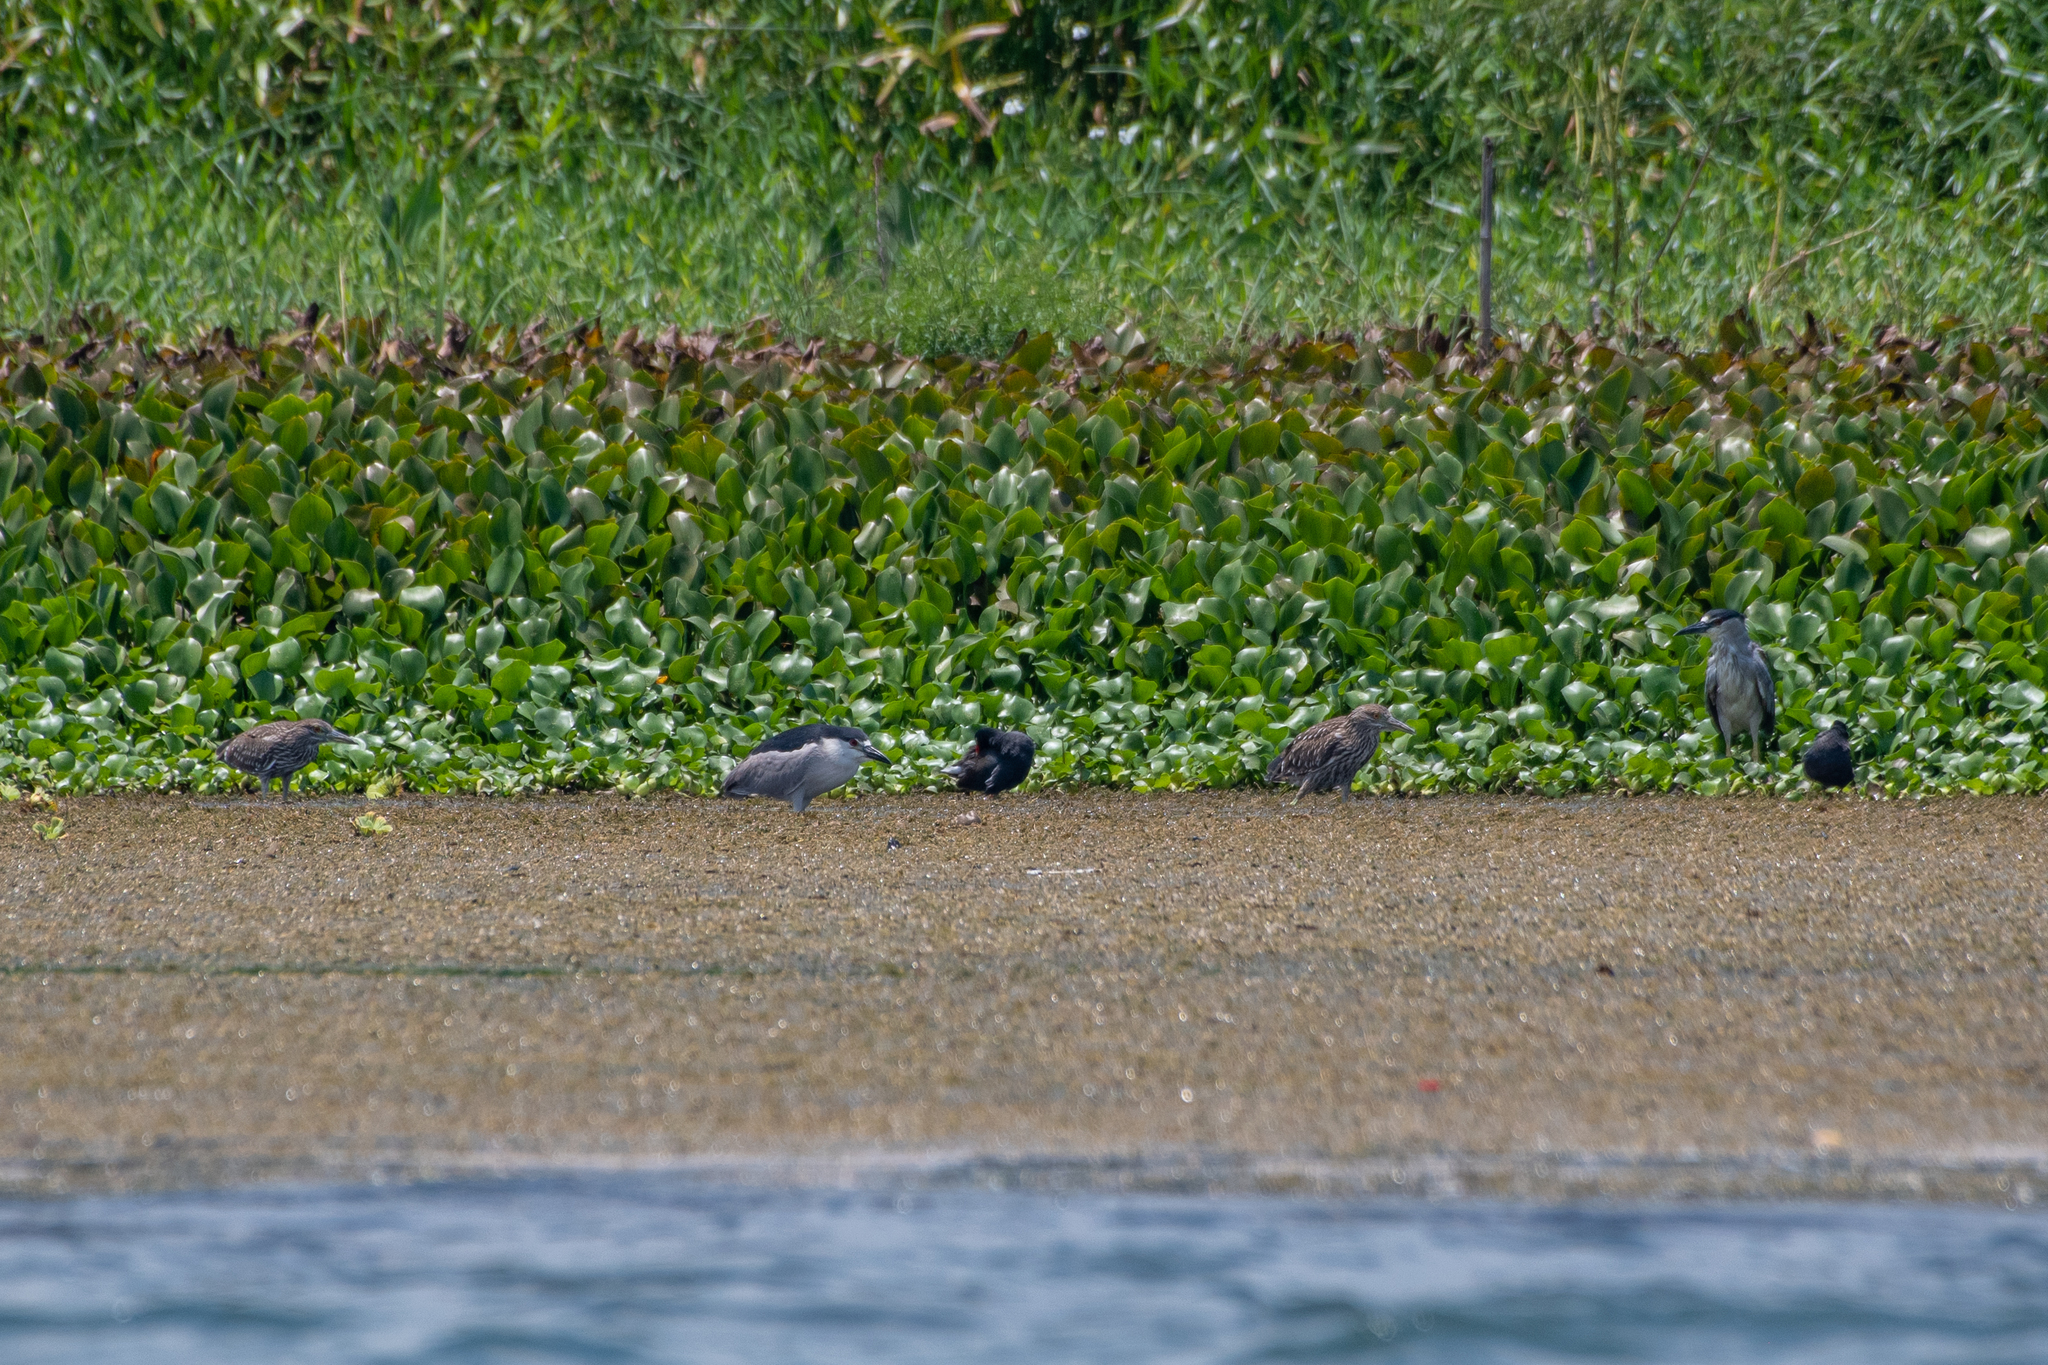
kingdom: Animalia
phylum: Chordata
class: Aves
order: Pelecaniformes
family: Ardeidae
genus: Nycticorax
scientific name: Nycticorax nycticorax
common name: Black-crowned night heron
